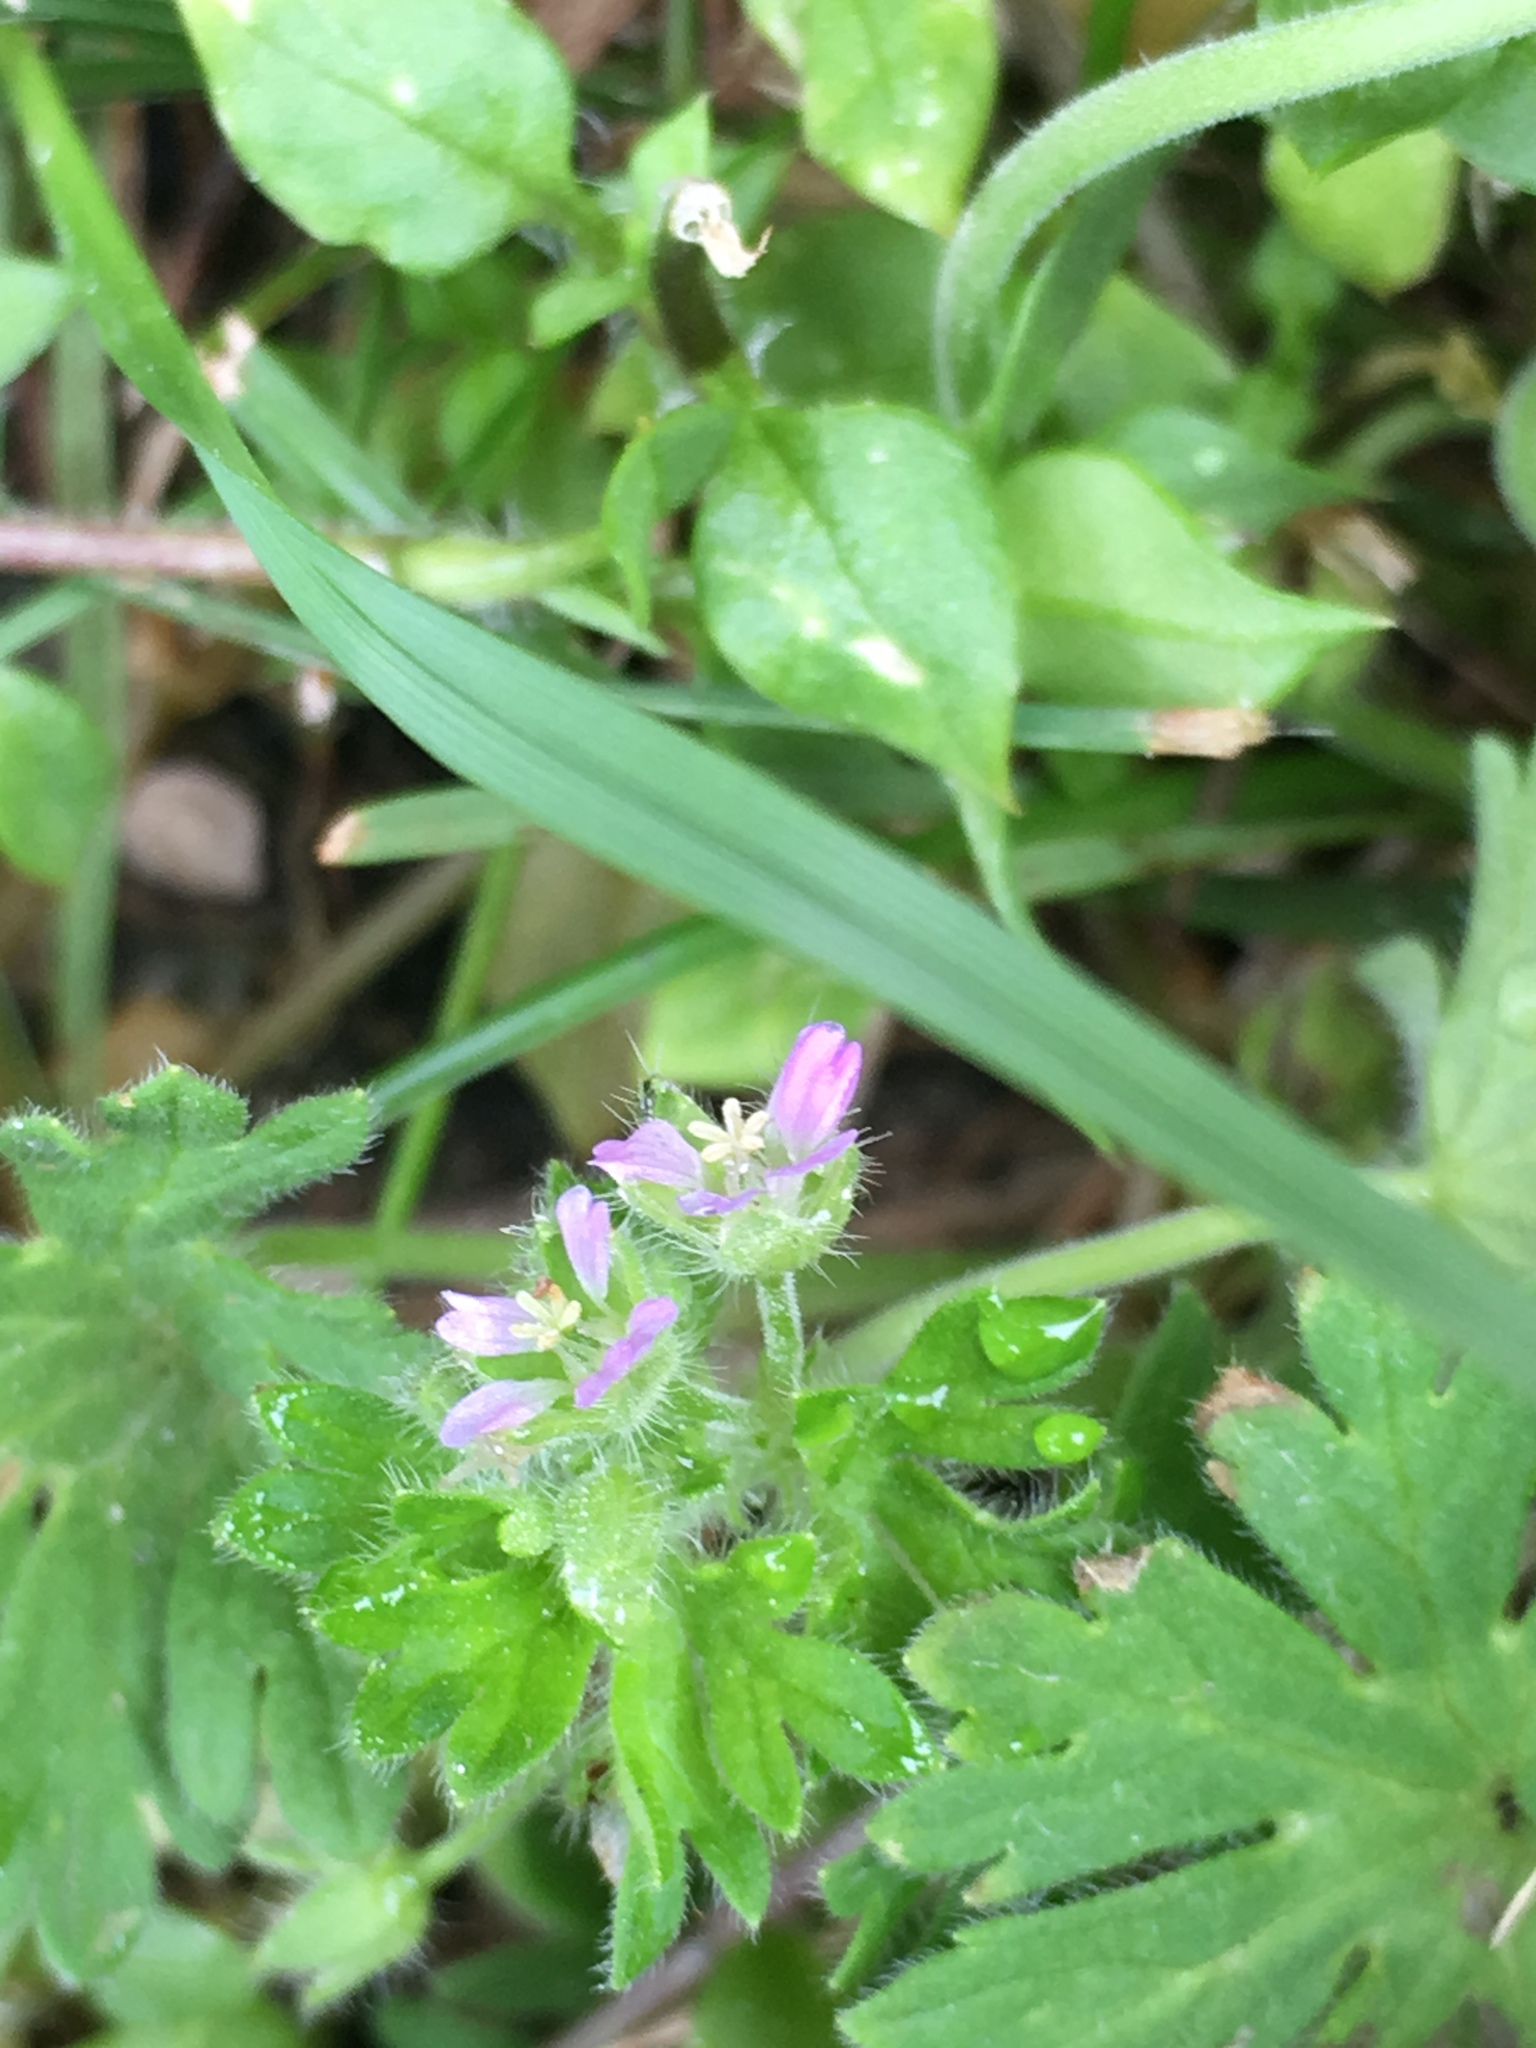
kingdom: Plantae
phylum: Tracheophyta
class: Magnoliopsida
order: Geraniales
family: Geraniaceae
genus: Geranium
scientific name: Geranium pusillum
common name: Small geranium
